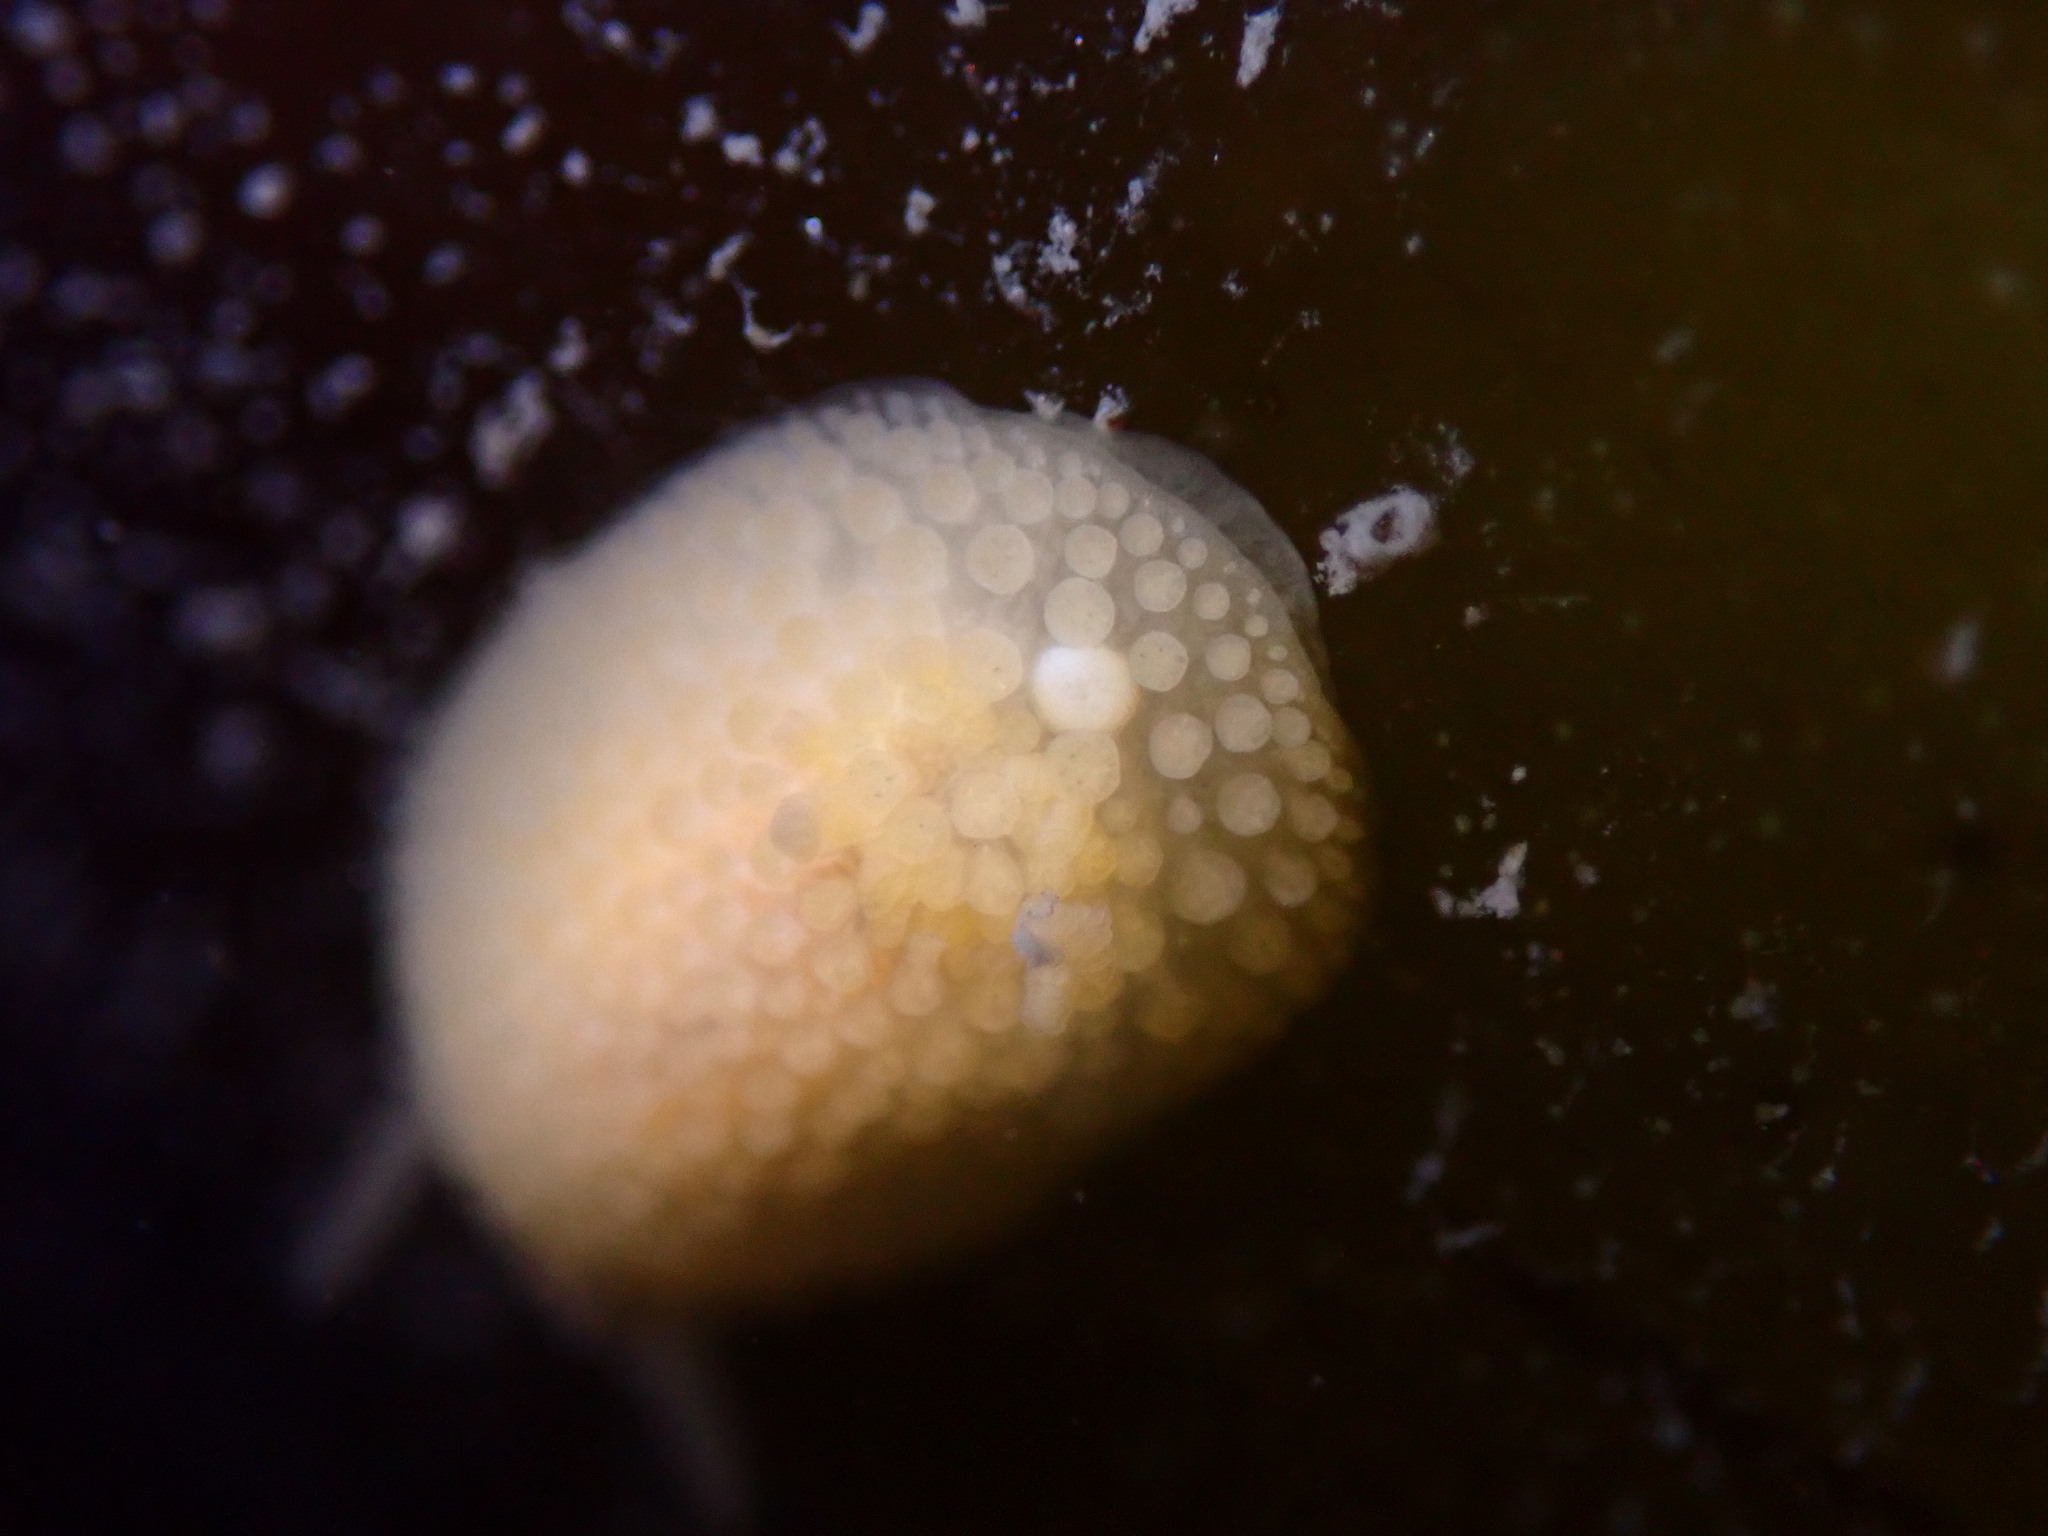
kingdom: Animalia
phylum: Mollusca
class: Gastropoda
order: Nudibranchia
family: Onchidorididae
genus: Atalodoris
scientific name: Atalodoris jannae
